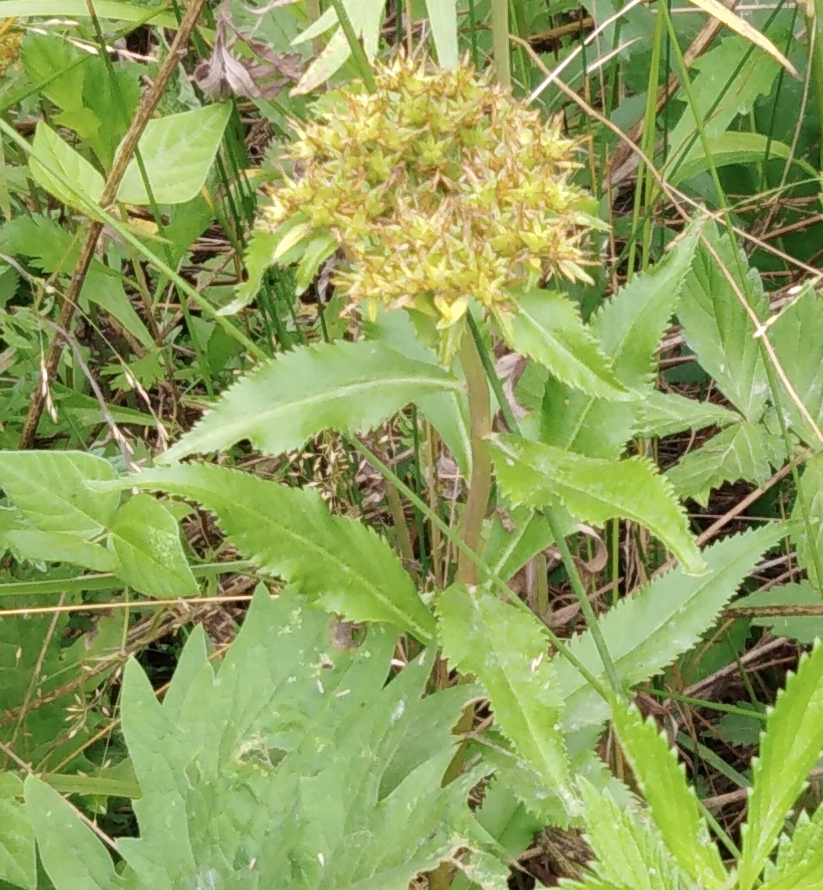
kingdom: Plantae
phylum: Tracheophyta
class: Magnoliopsida
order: Saxifragales
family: Crassulaceae
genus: Phedimus
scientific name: Phedimus aizoon
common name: Orpin aizoon
